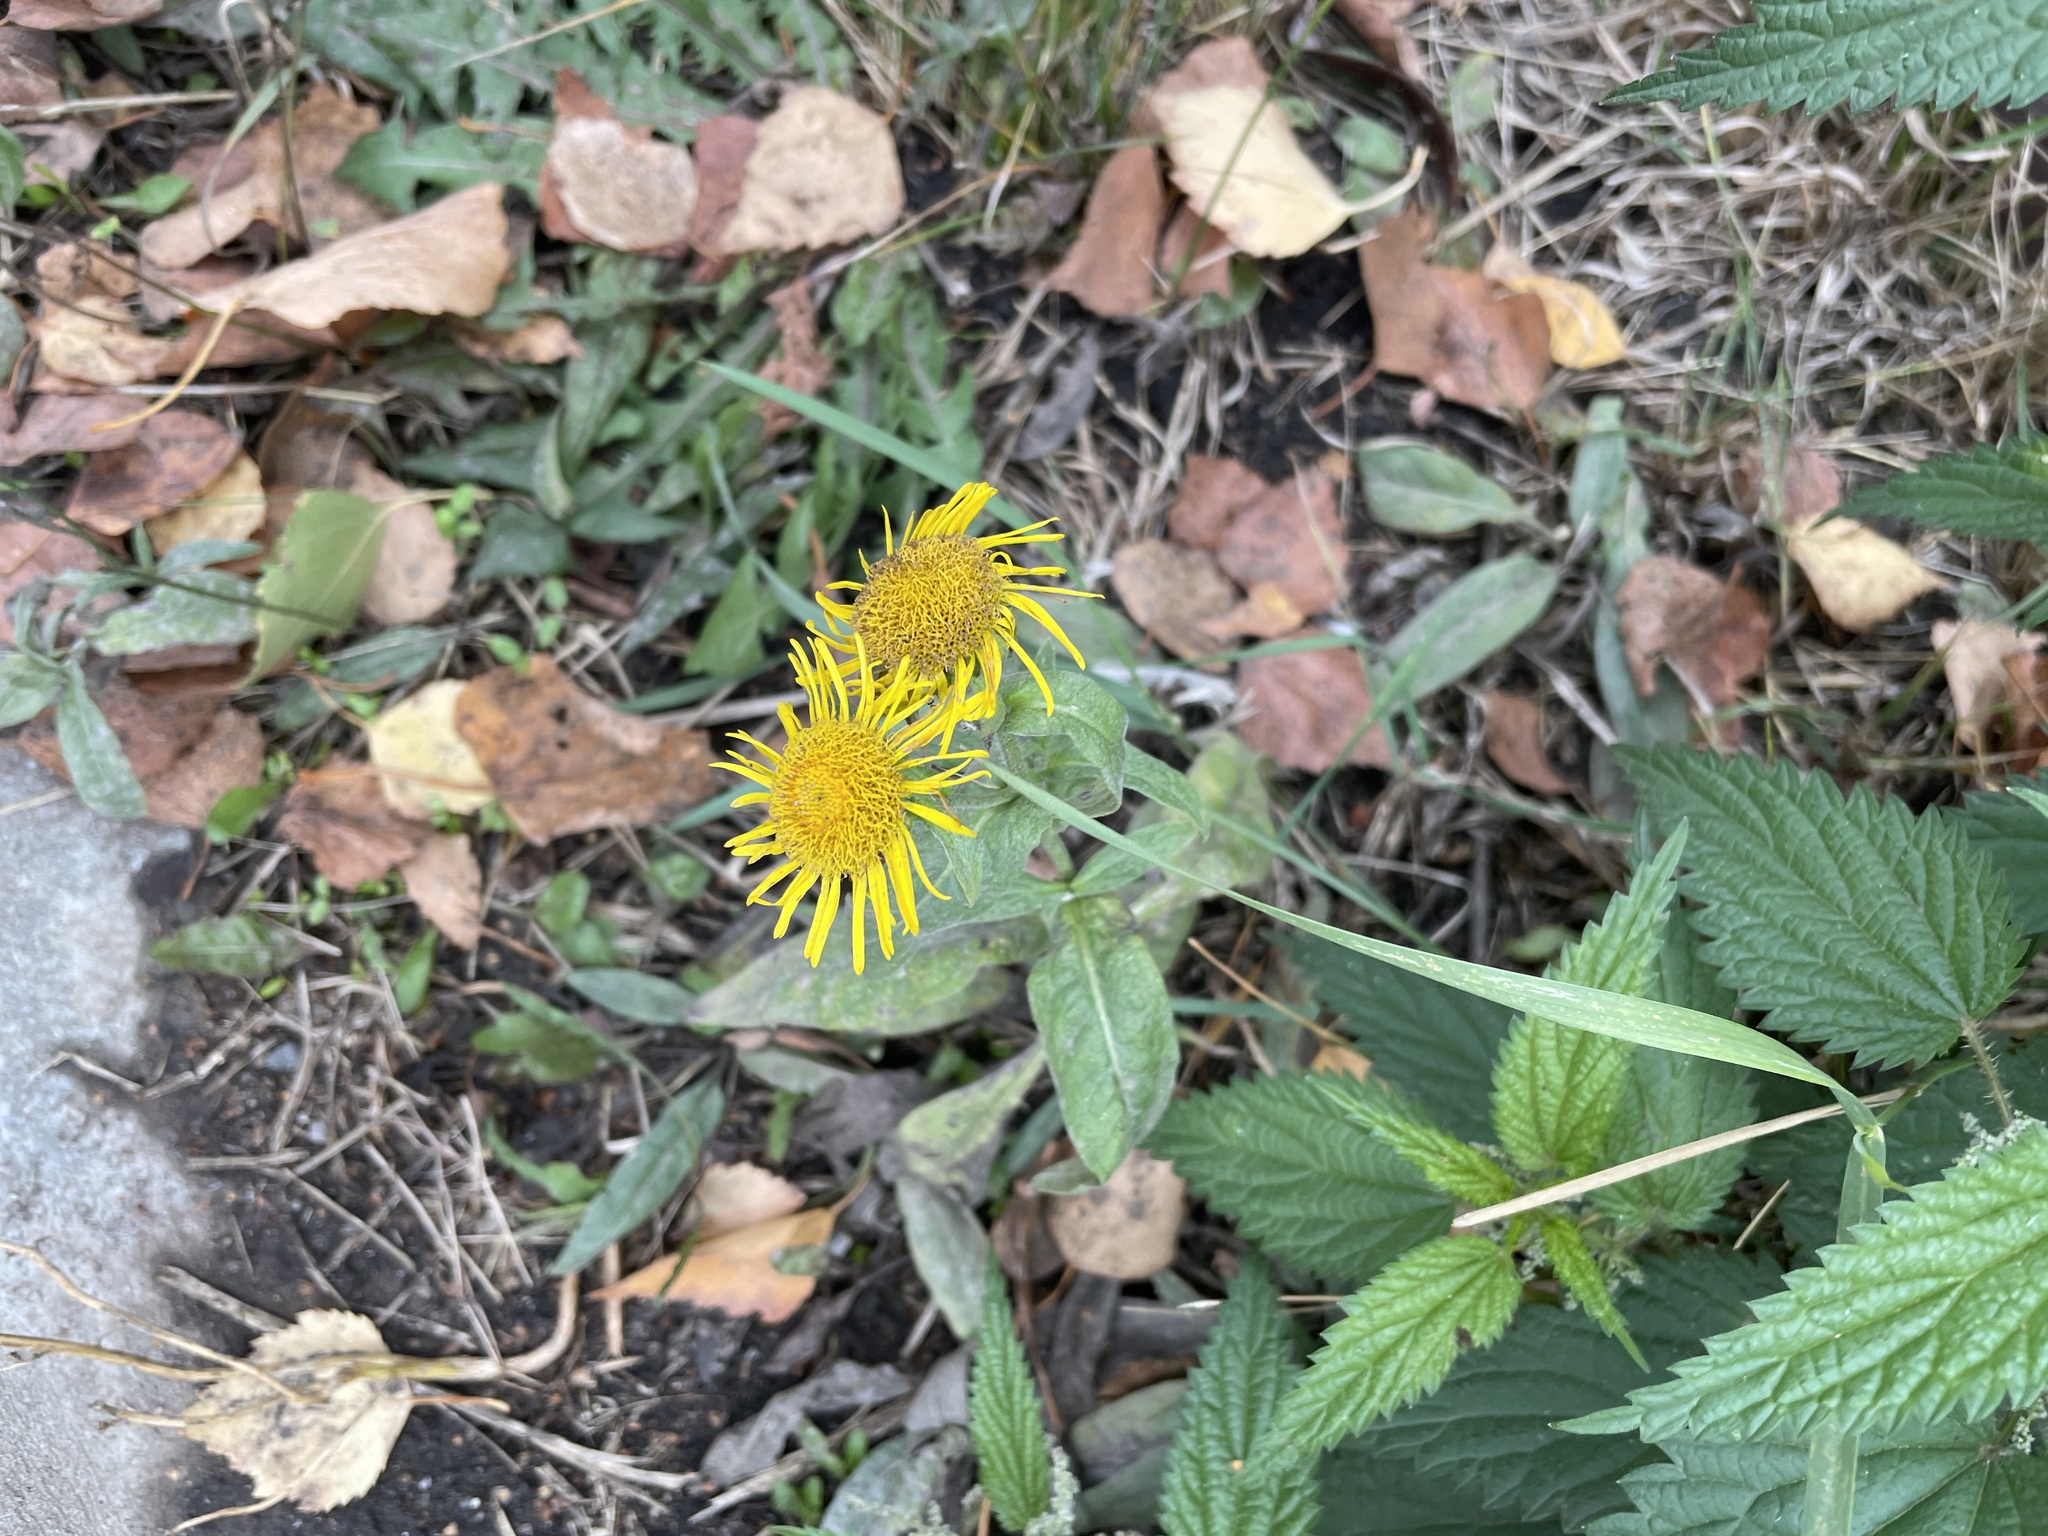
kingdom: Plantae
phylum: Tracheophyta
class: Magnoliopsida
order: Asterales
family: Asteraceae
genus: Pentanema
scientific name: Pentanema britannicum
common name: British elecampane
